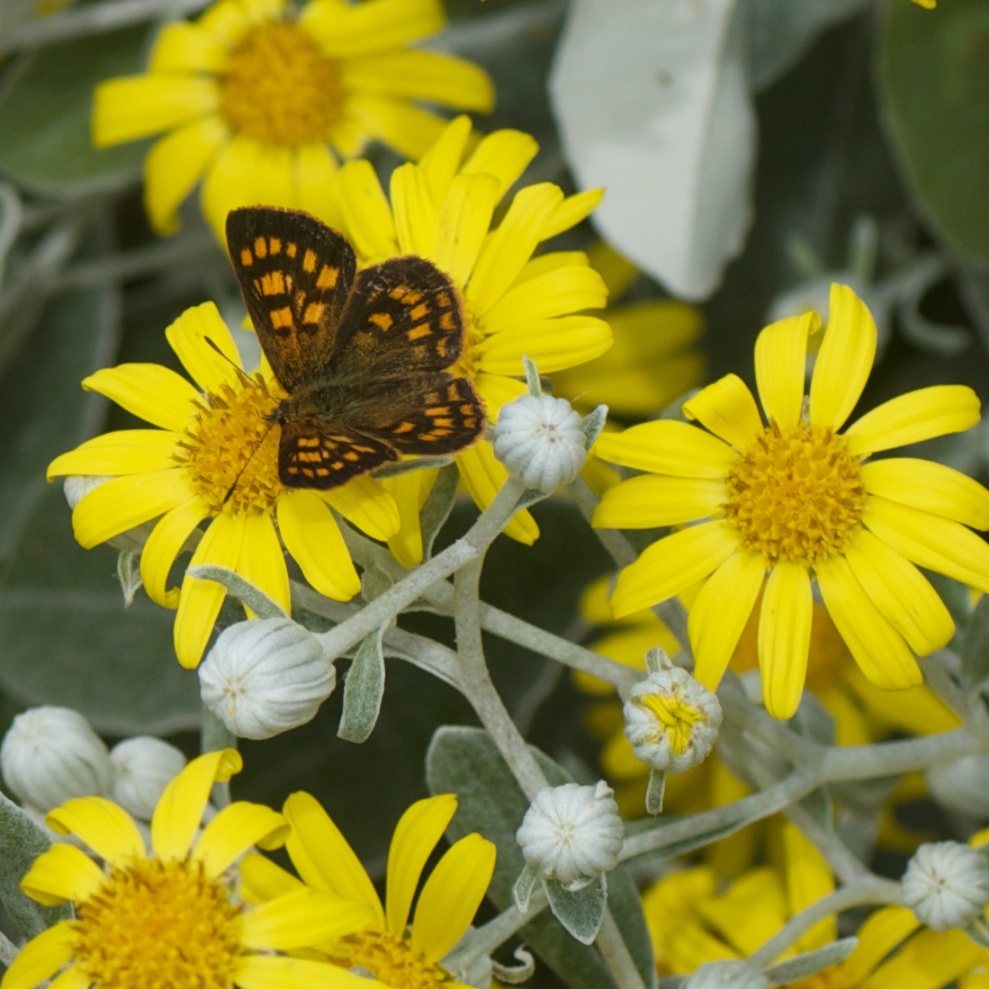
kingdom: Animalia
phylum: Arthropoda
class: Insecta
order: Lepidoptera
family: Lycaenidae
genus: Lycaena
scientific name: Lycaena feredayi
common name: Glade copper
